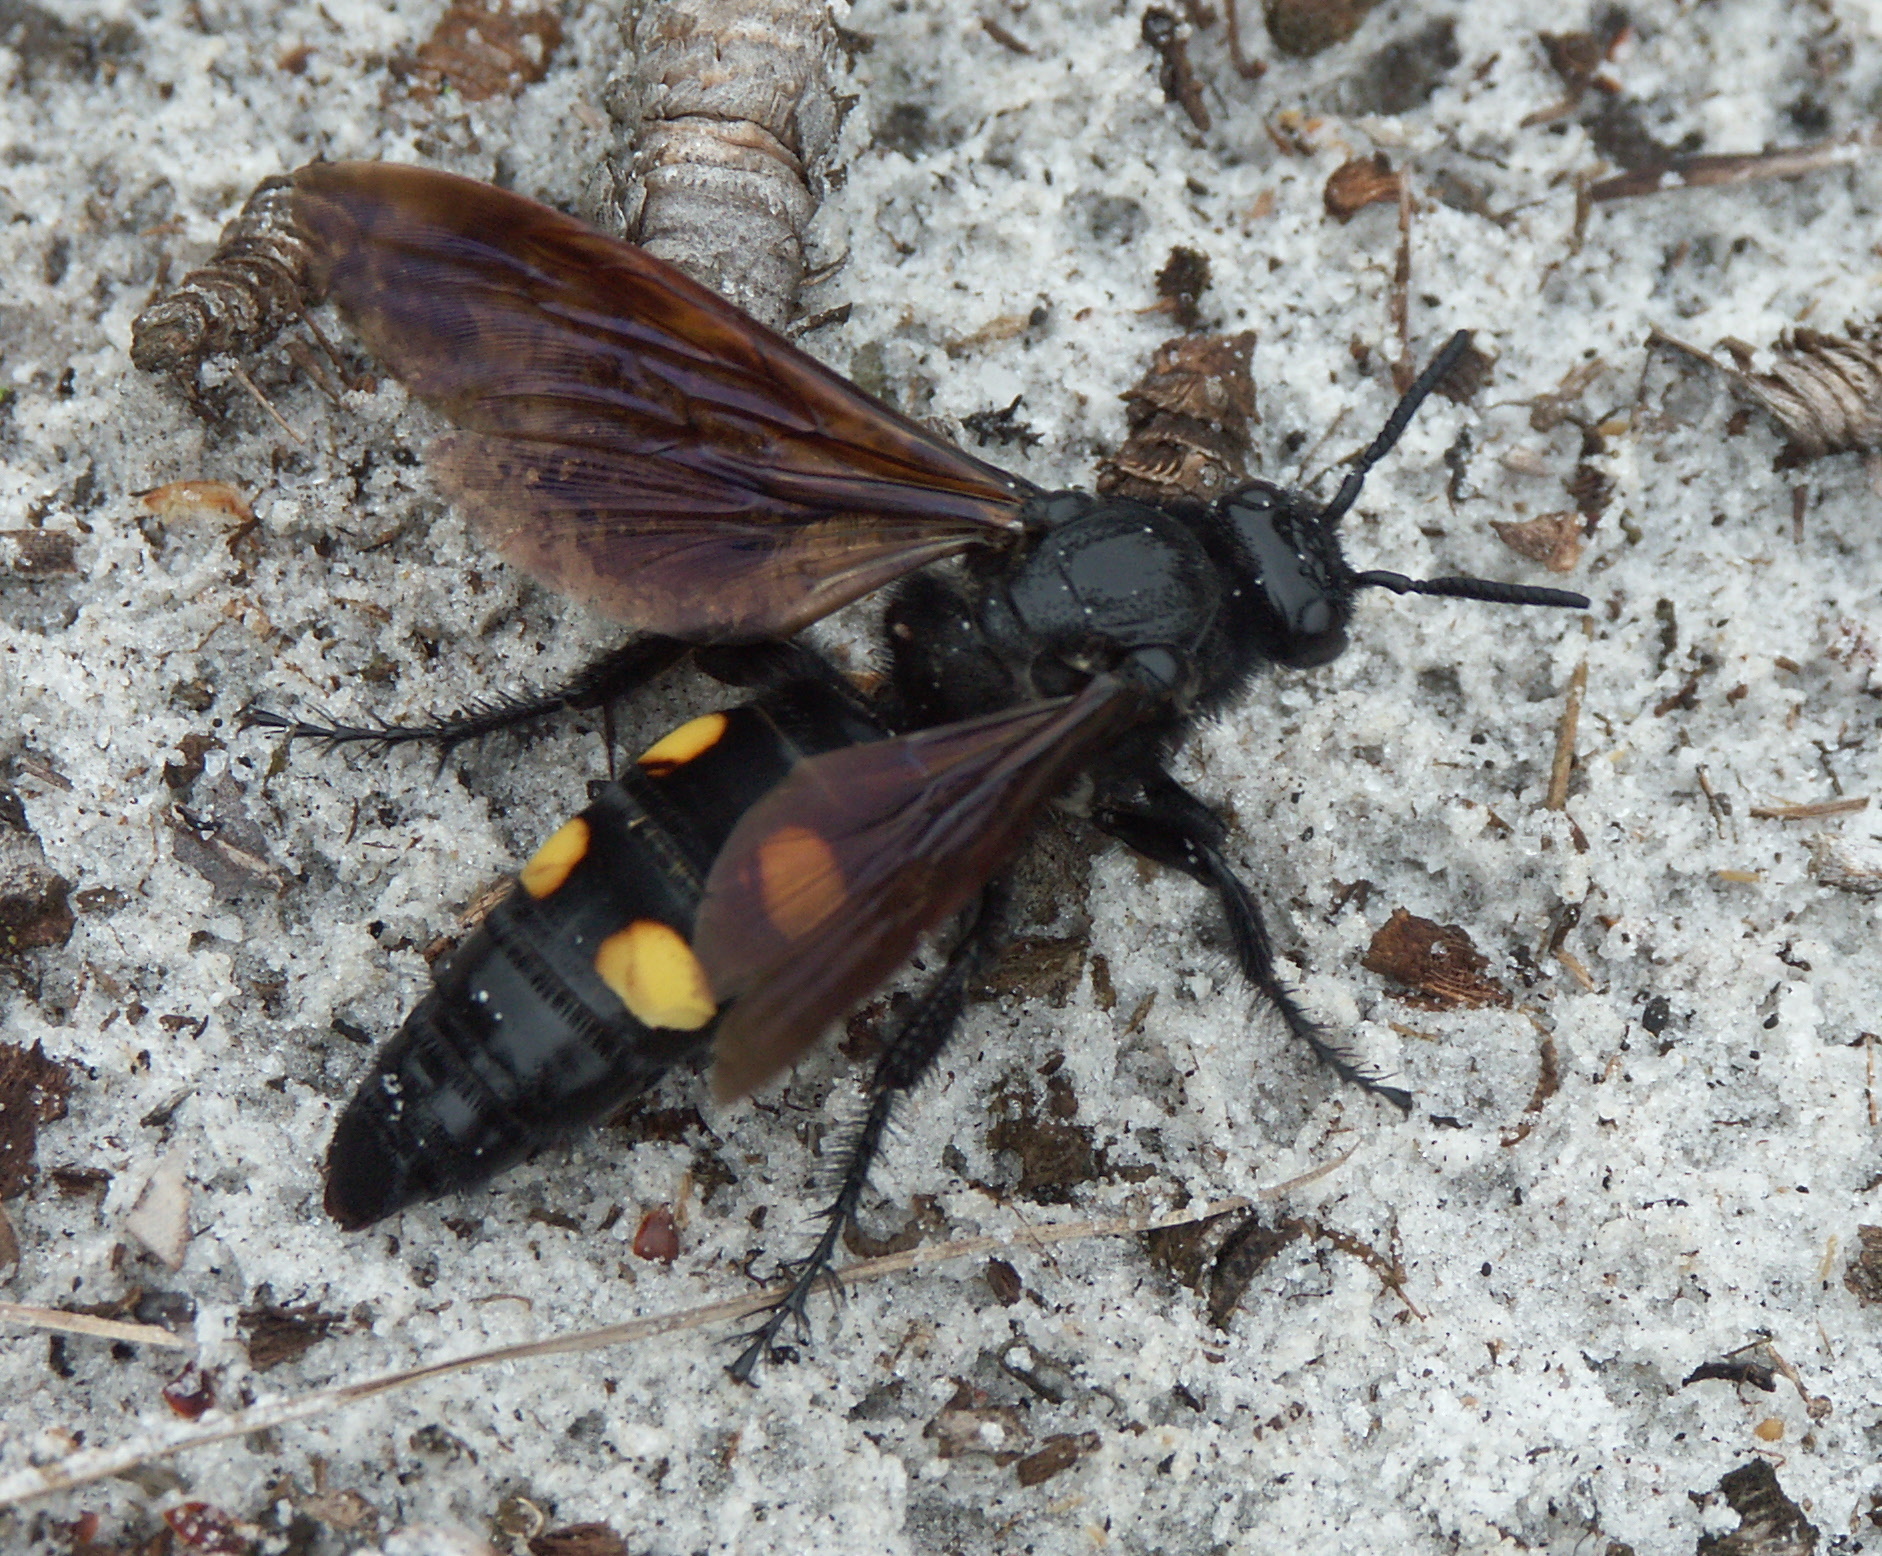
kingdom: Animalia
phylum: Arthropoda
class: Insecta
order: Hymenoptera
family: Scoliidae
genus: Pygodasis
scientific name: Pygodasis
